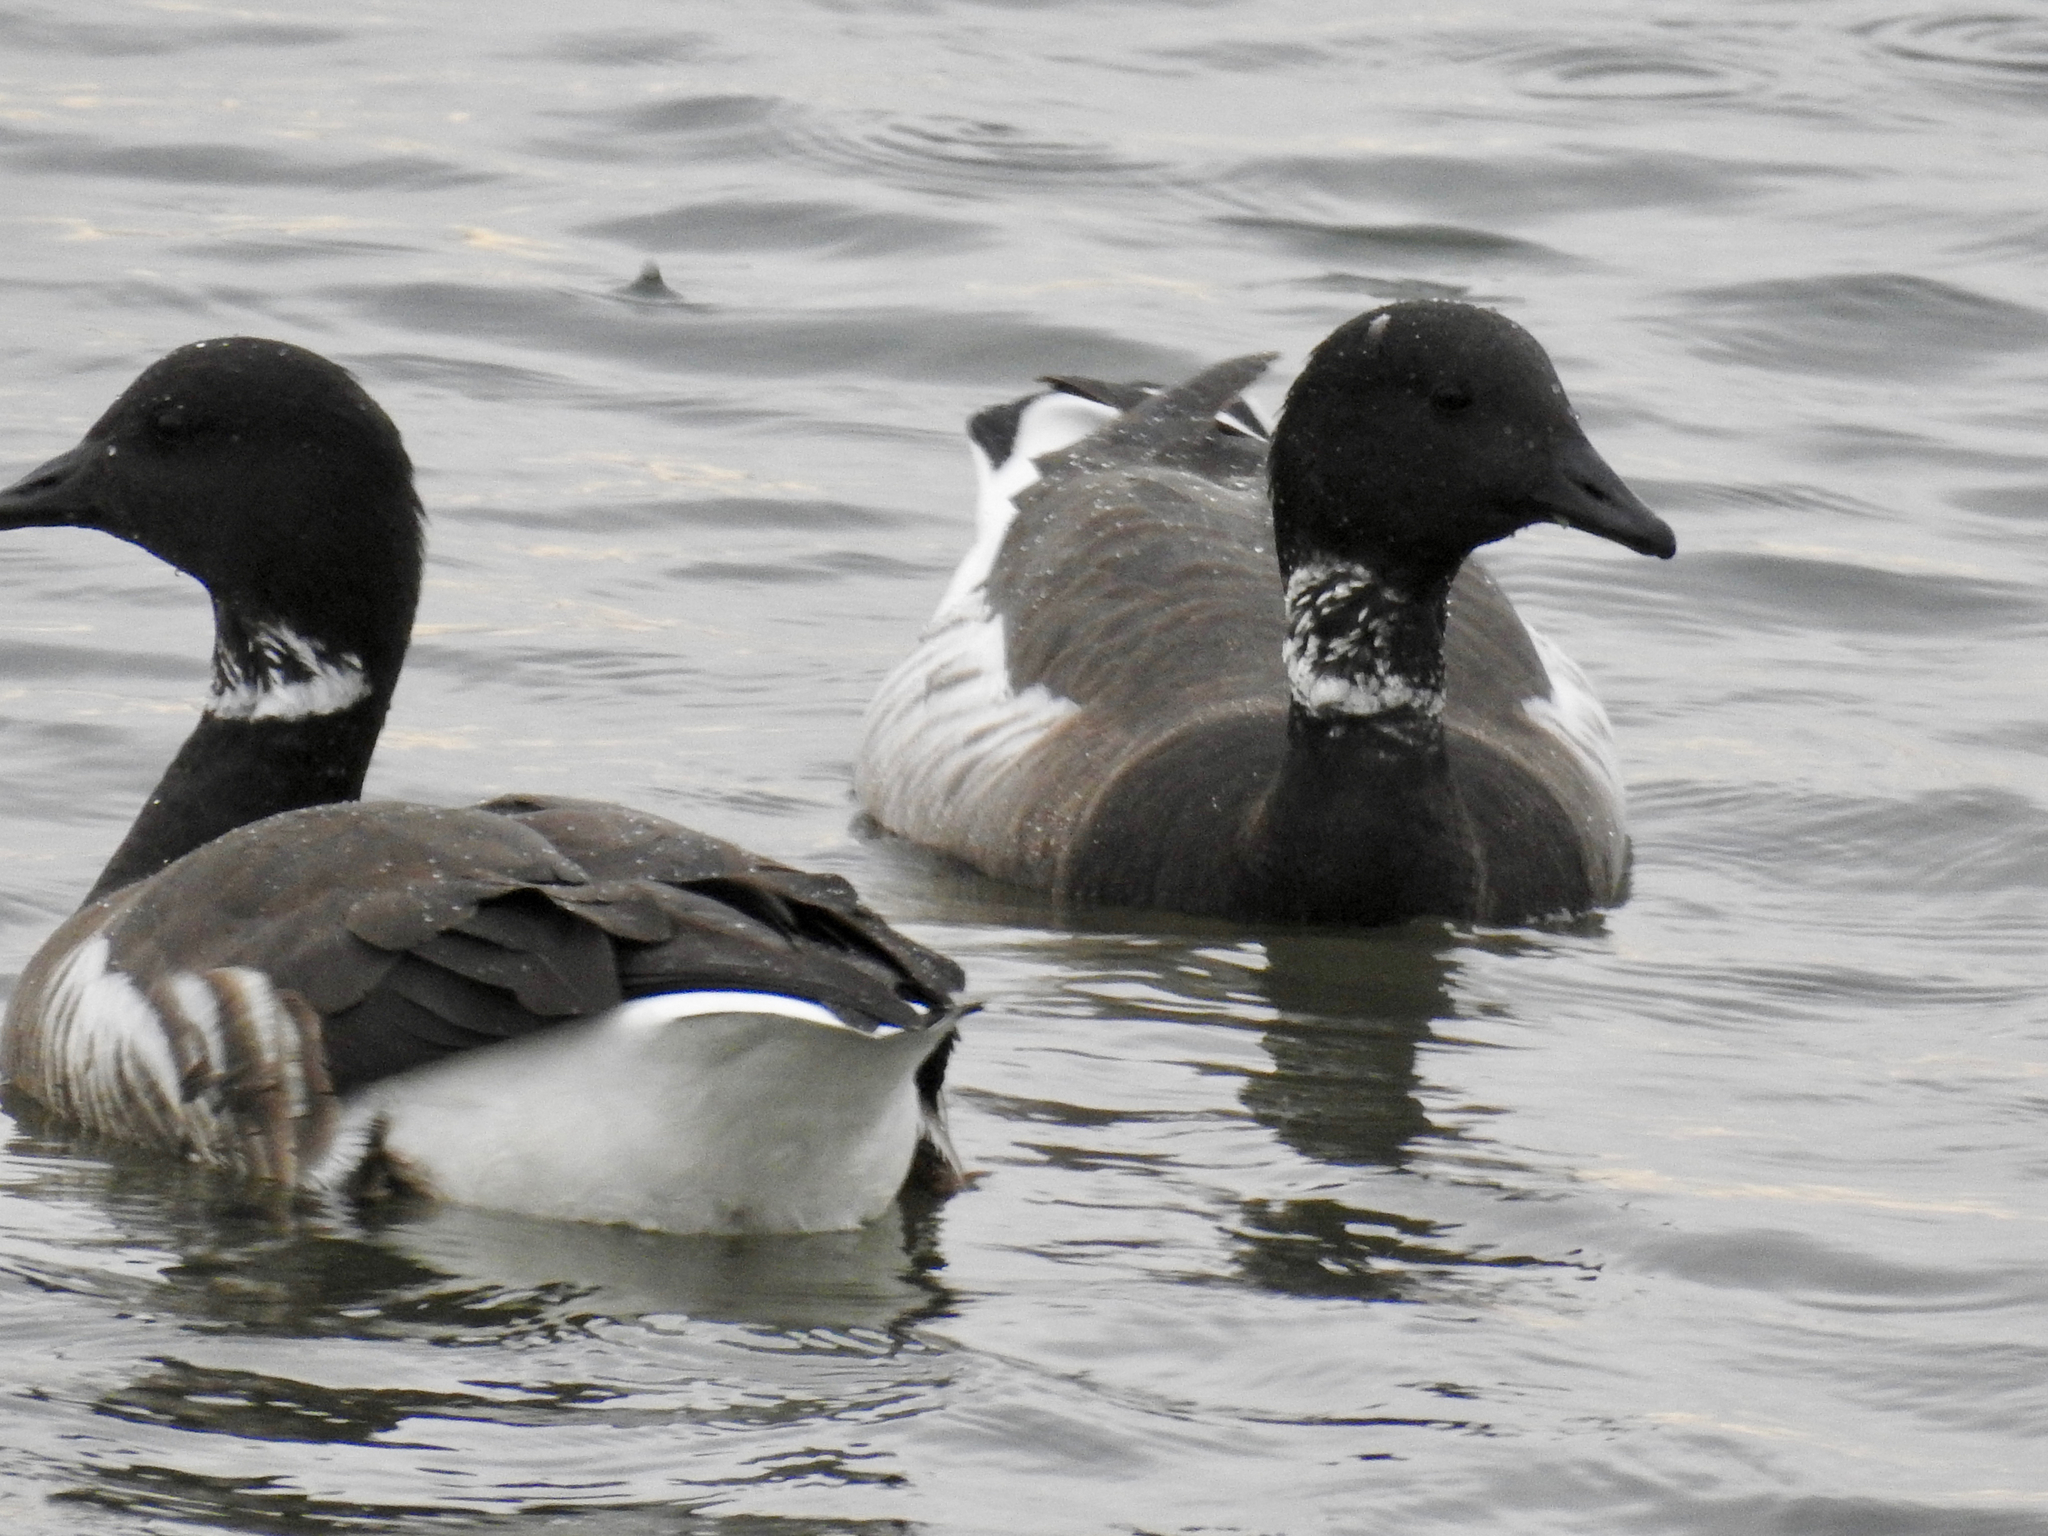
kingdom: Animalia
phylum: Chordata
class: Aves
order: Anseriformes
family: Anatidae
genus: Branta
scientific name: Branta bernicla
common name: Brant goose
